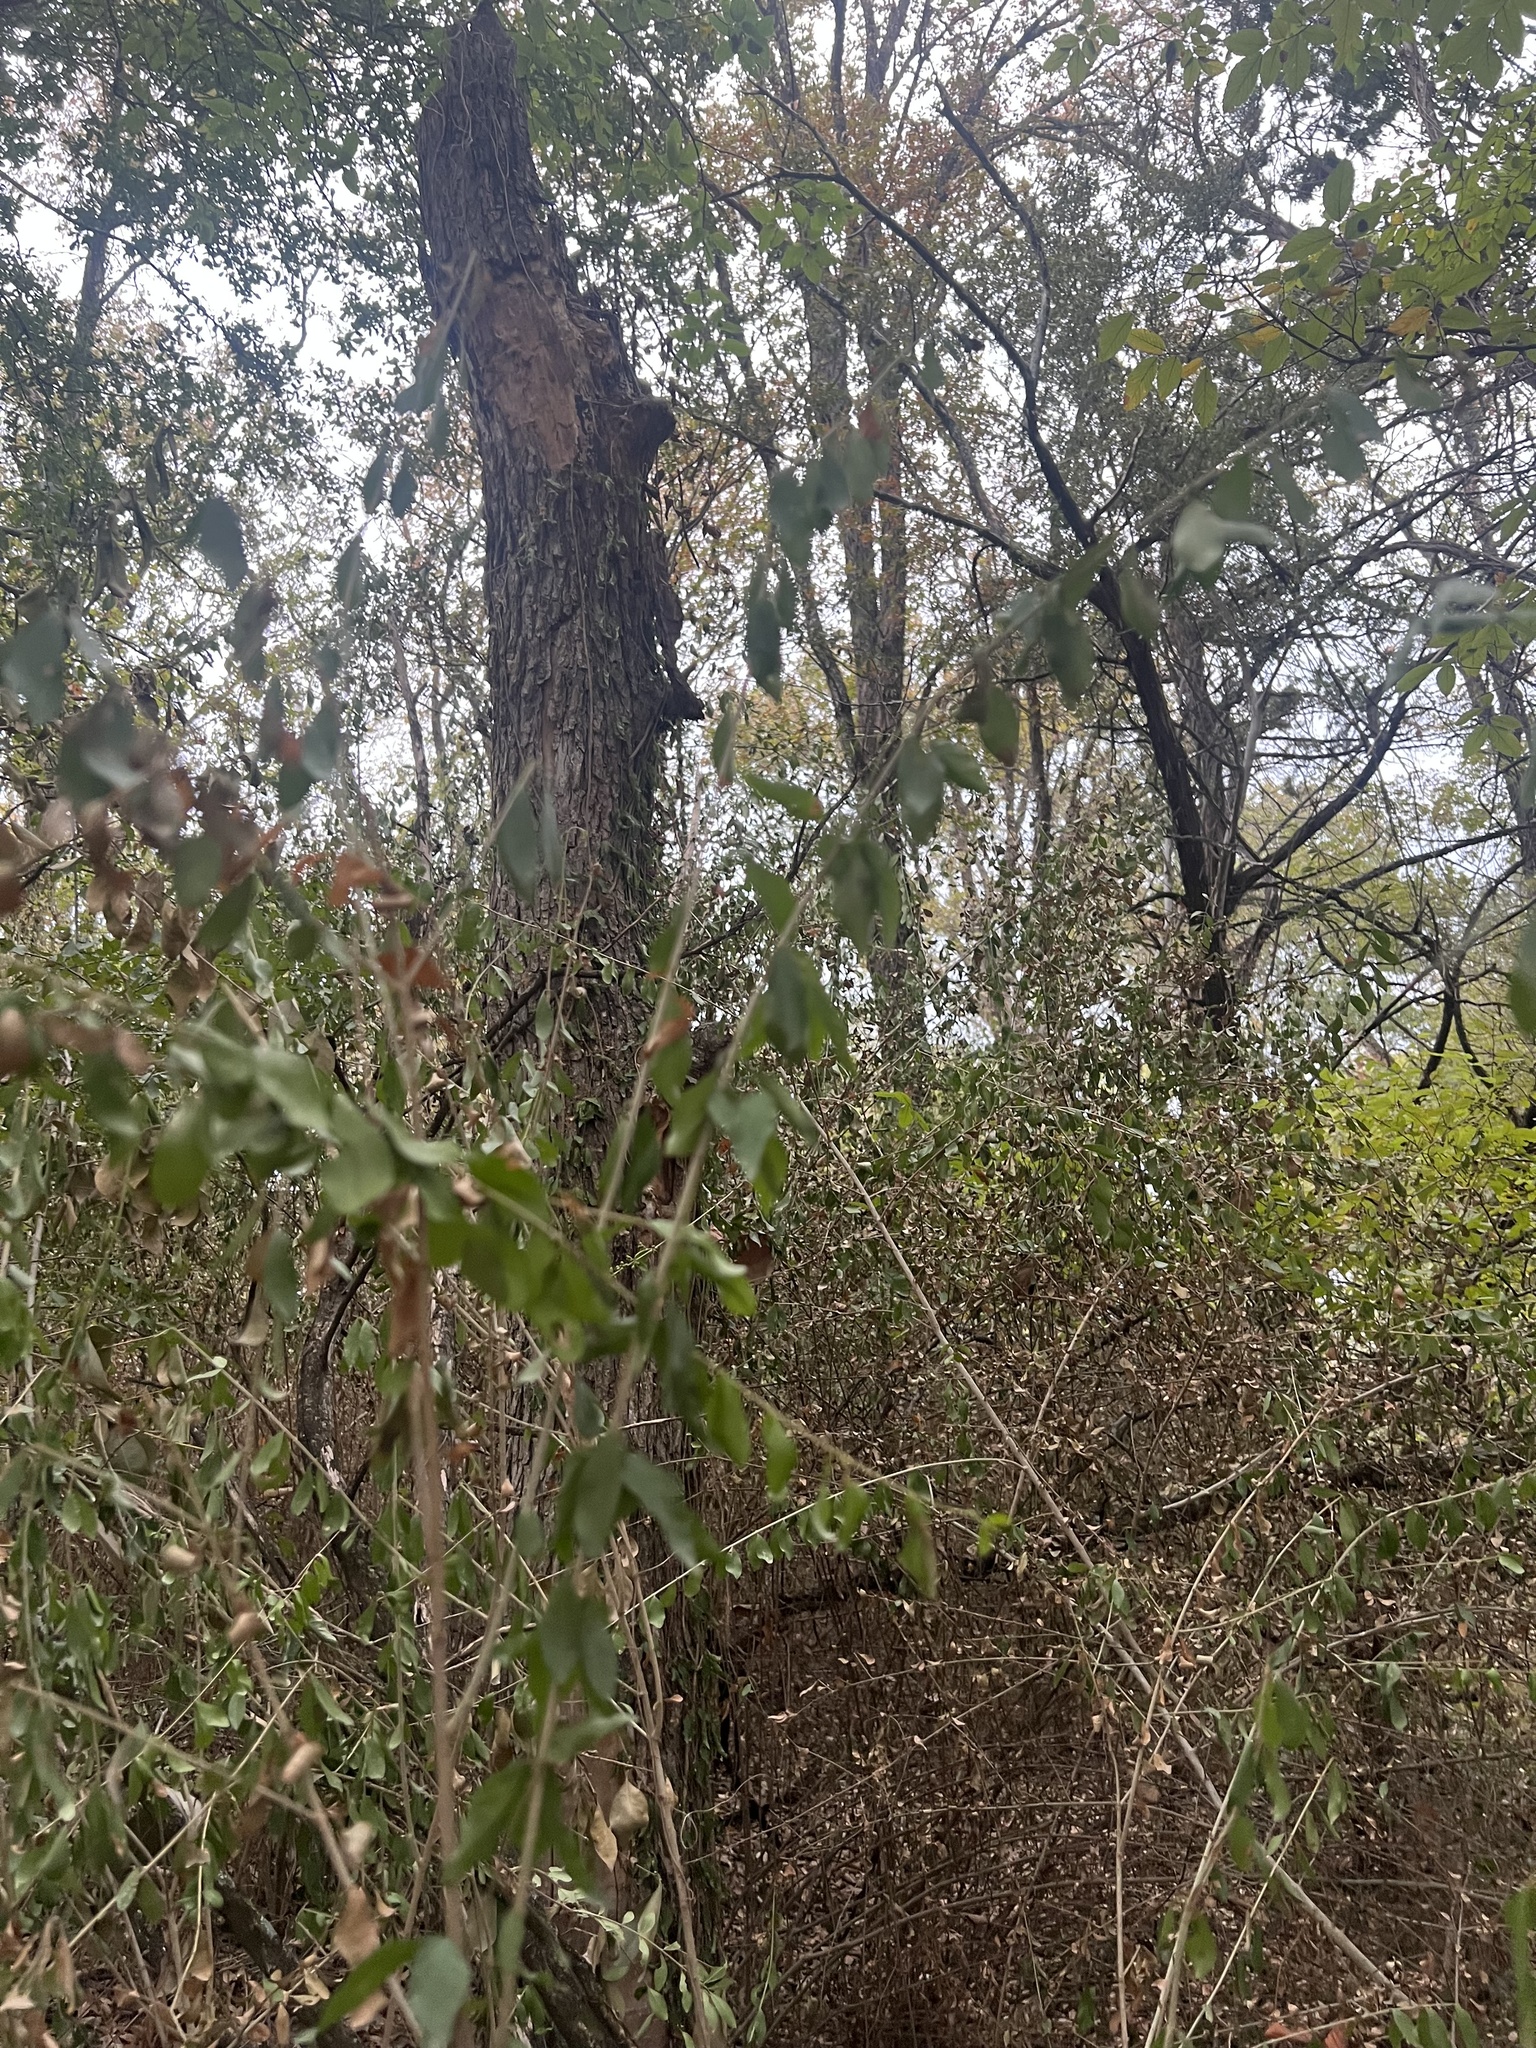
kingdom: Plantae
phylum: Tracheophyta
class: Magnoliopsida
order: Lamiales
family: Oleaceae
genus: Ligustrum
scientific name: Ligustrum sinense
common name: Chinese privet
